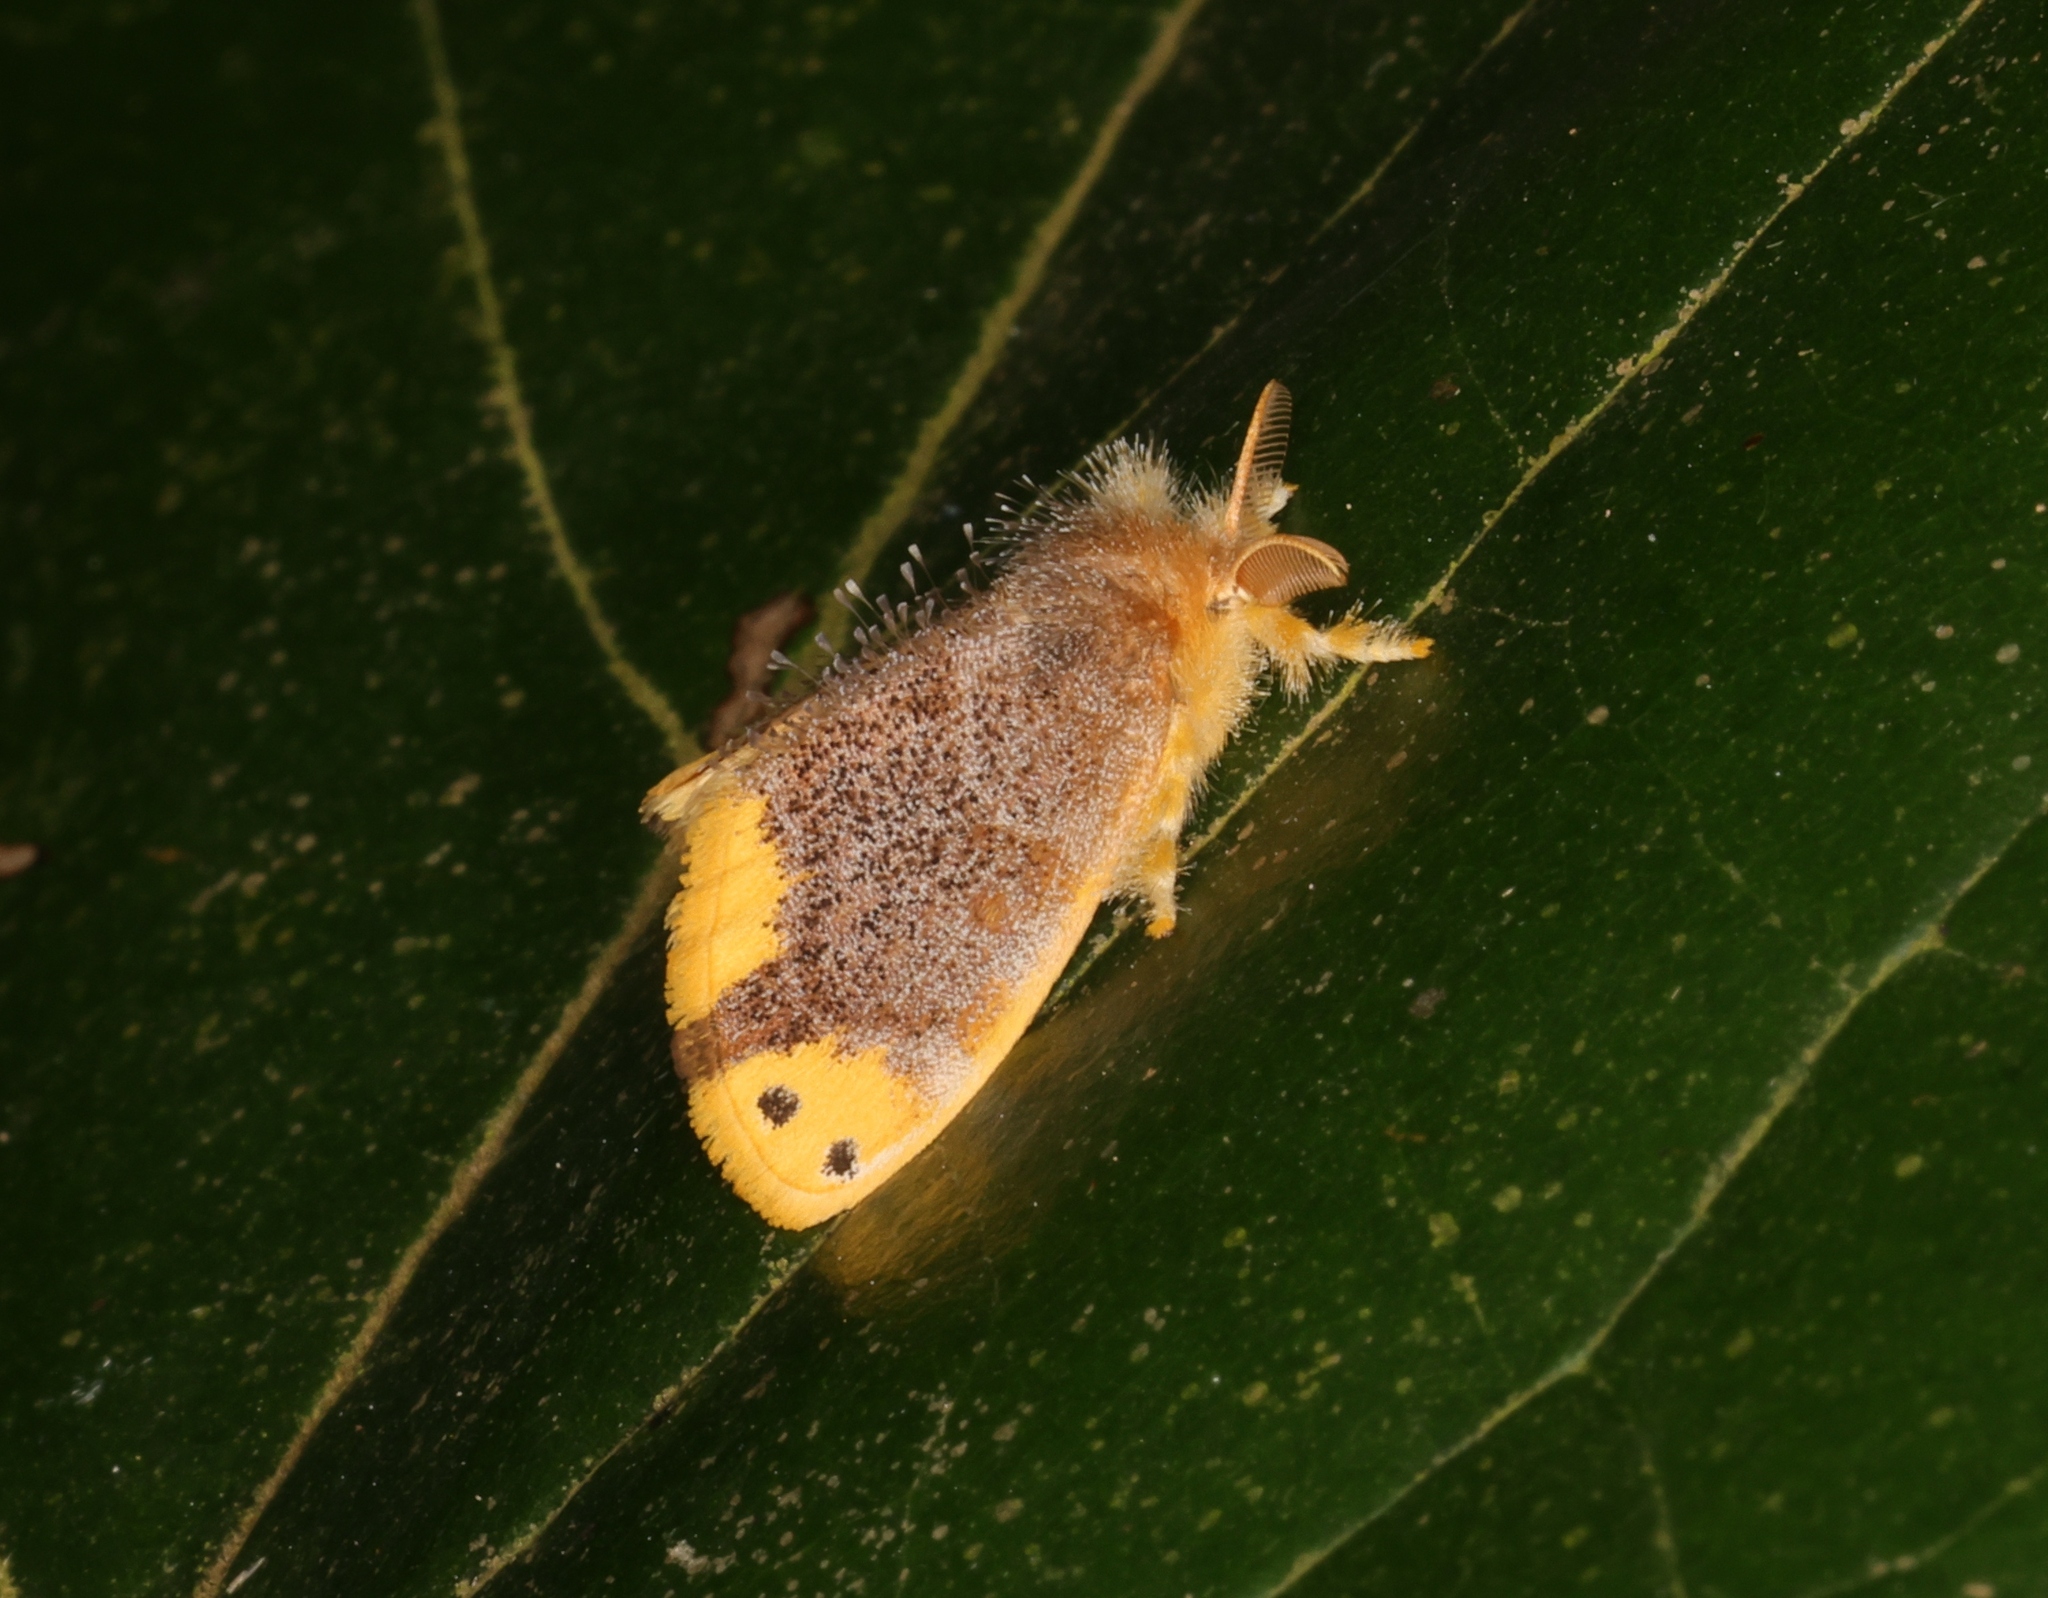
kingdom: Animalia
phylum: Arthropoda
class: Insecta
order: Lepidoptera
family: Erebidae
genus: Arna
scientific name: Arna bipunctapex
